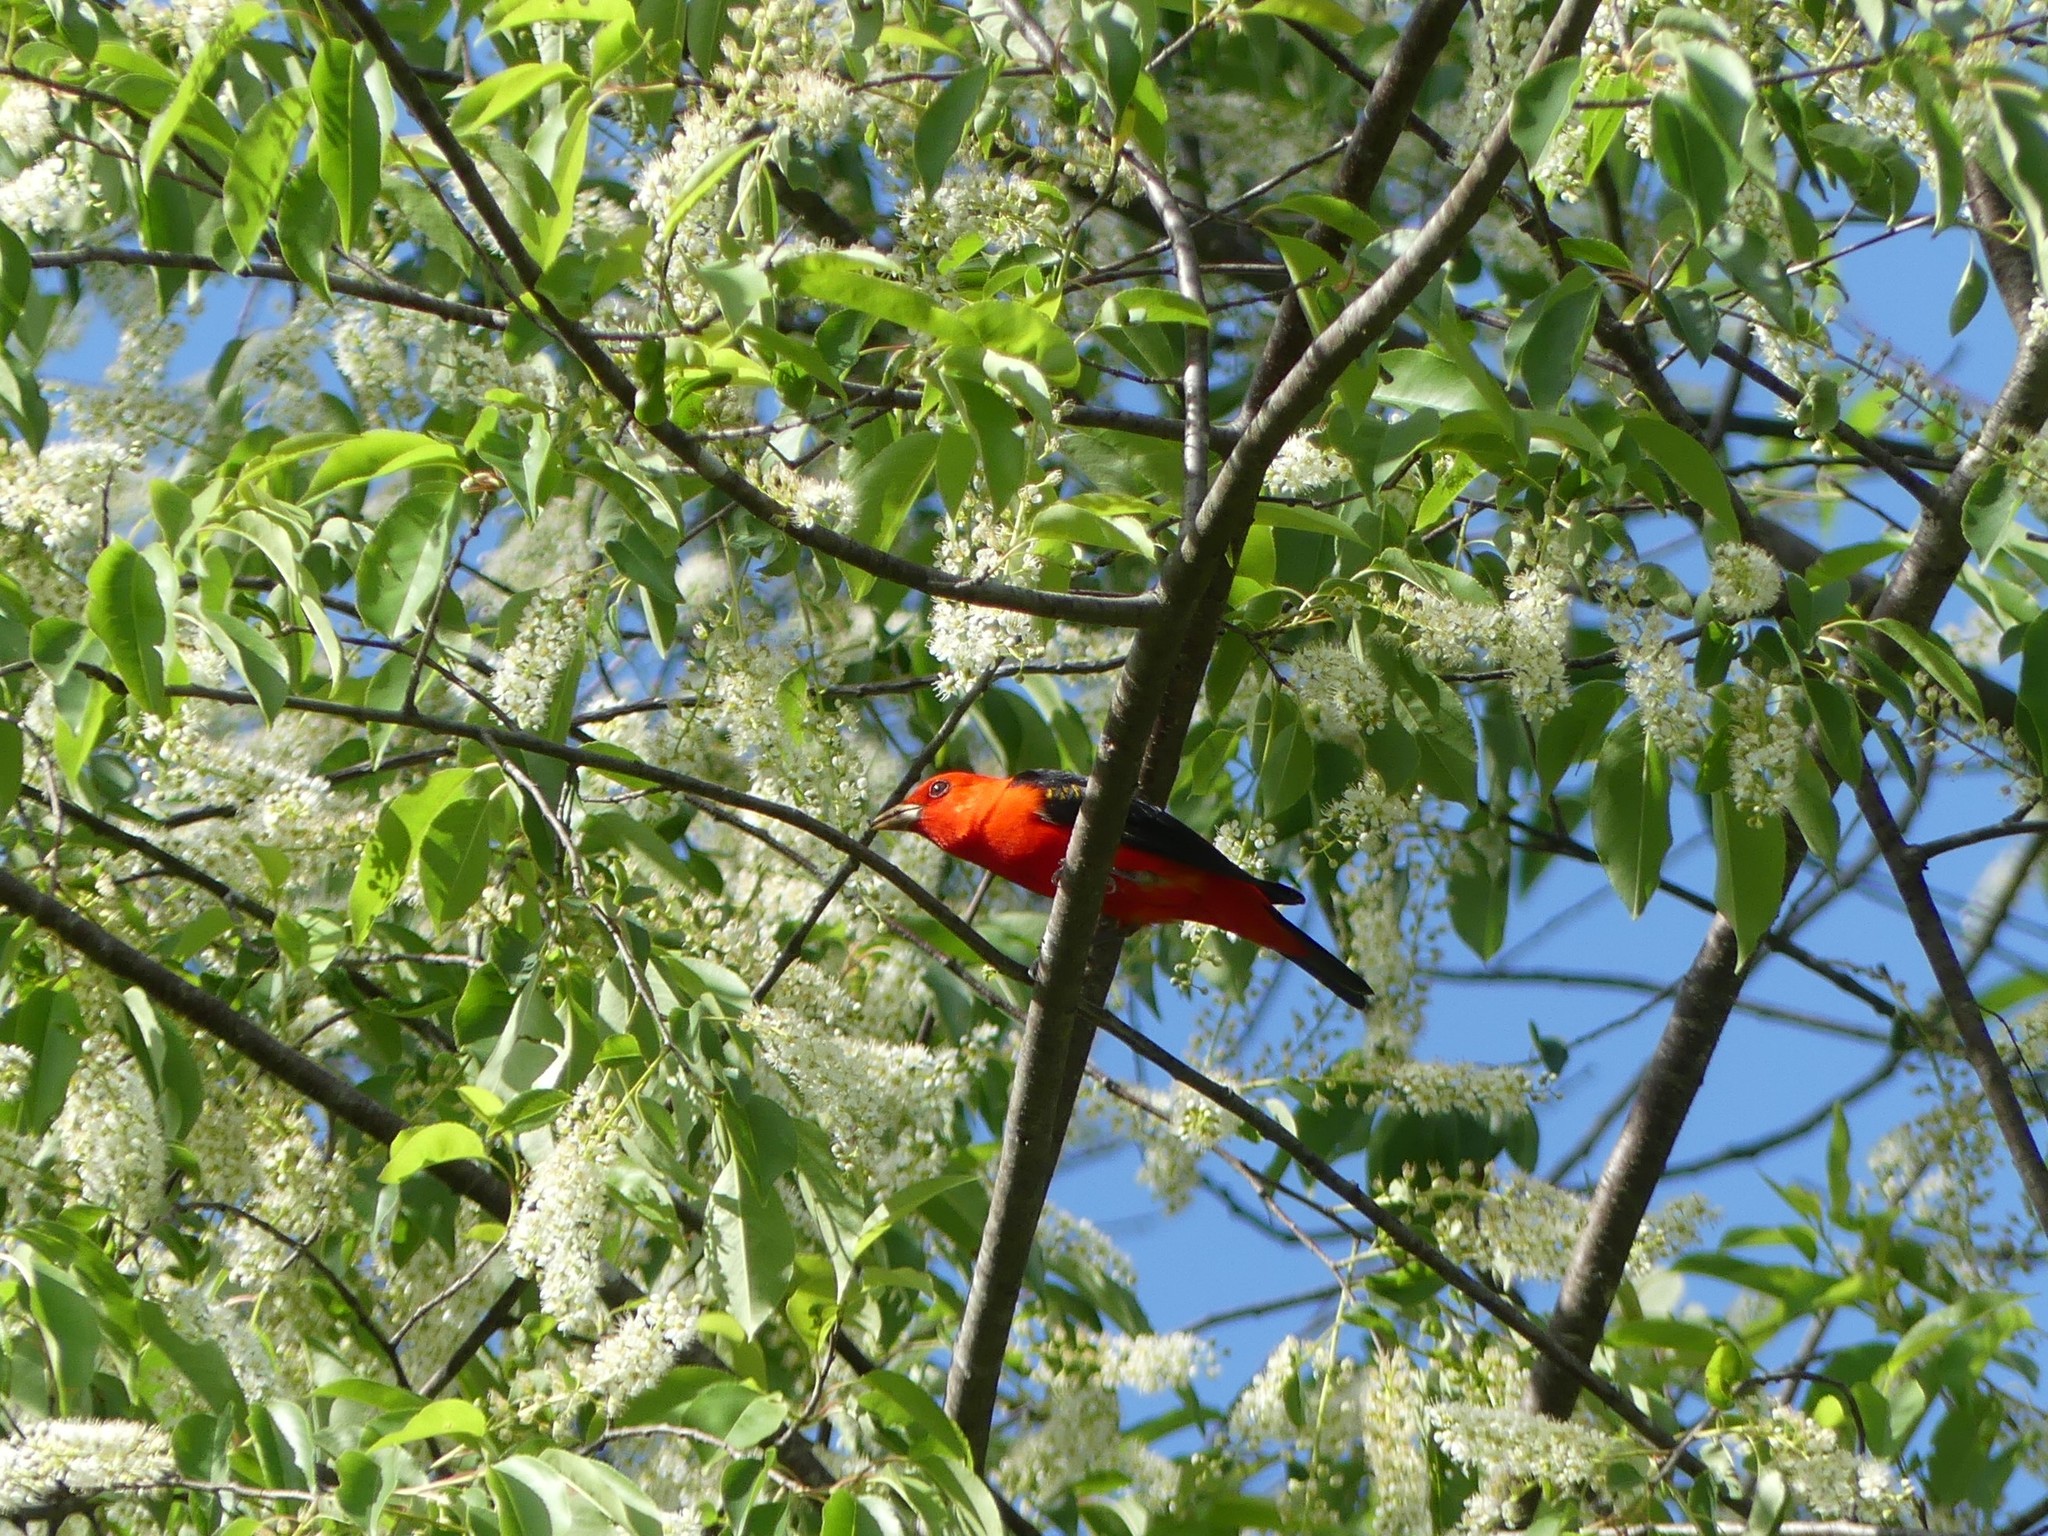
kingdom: Animalia
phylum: Chordata
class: Aves
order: Passeriformes
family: Cardinalidae
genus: Piranga
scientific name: Piranga olivacea
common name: Scarlet tanager
